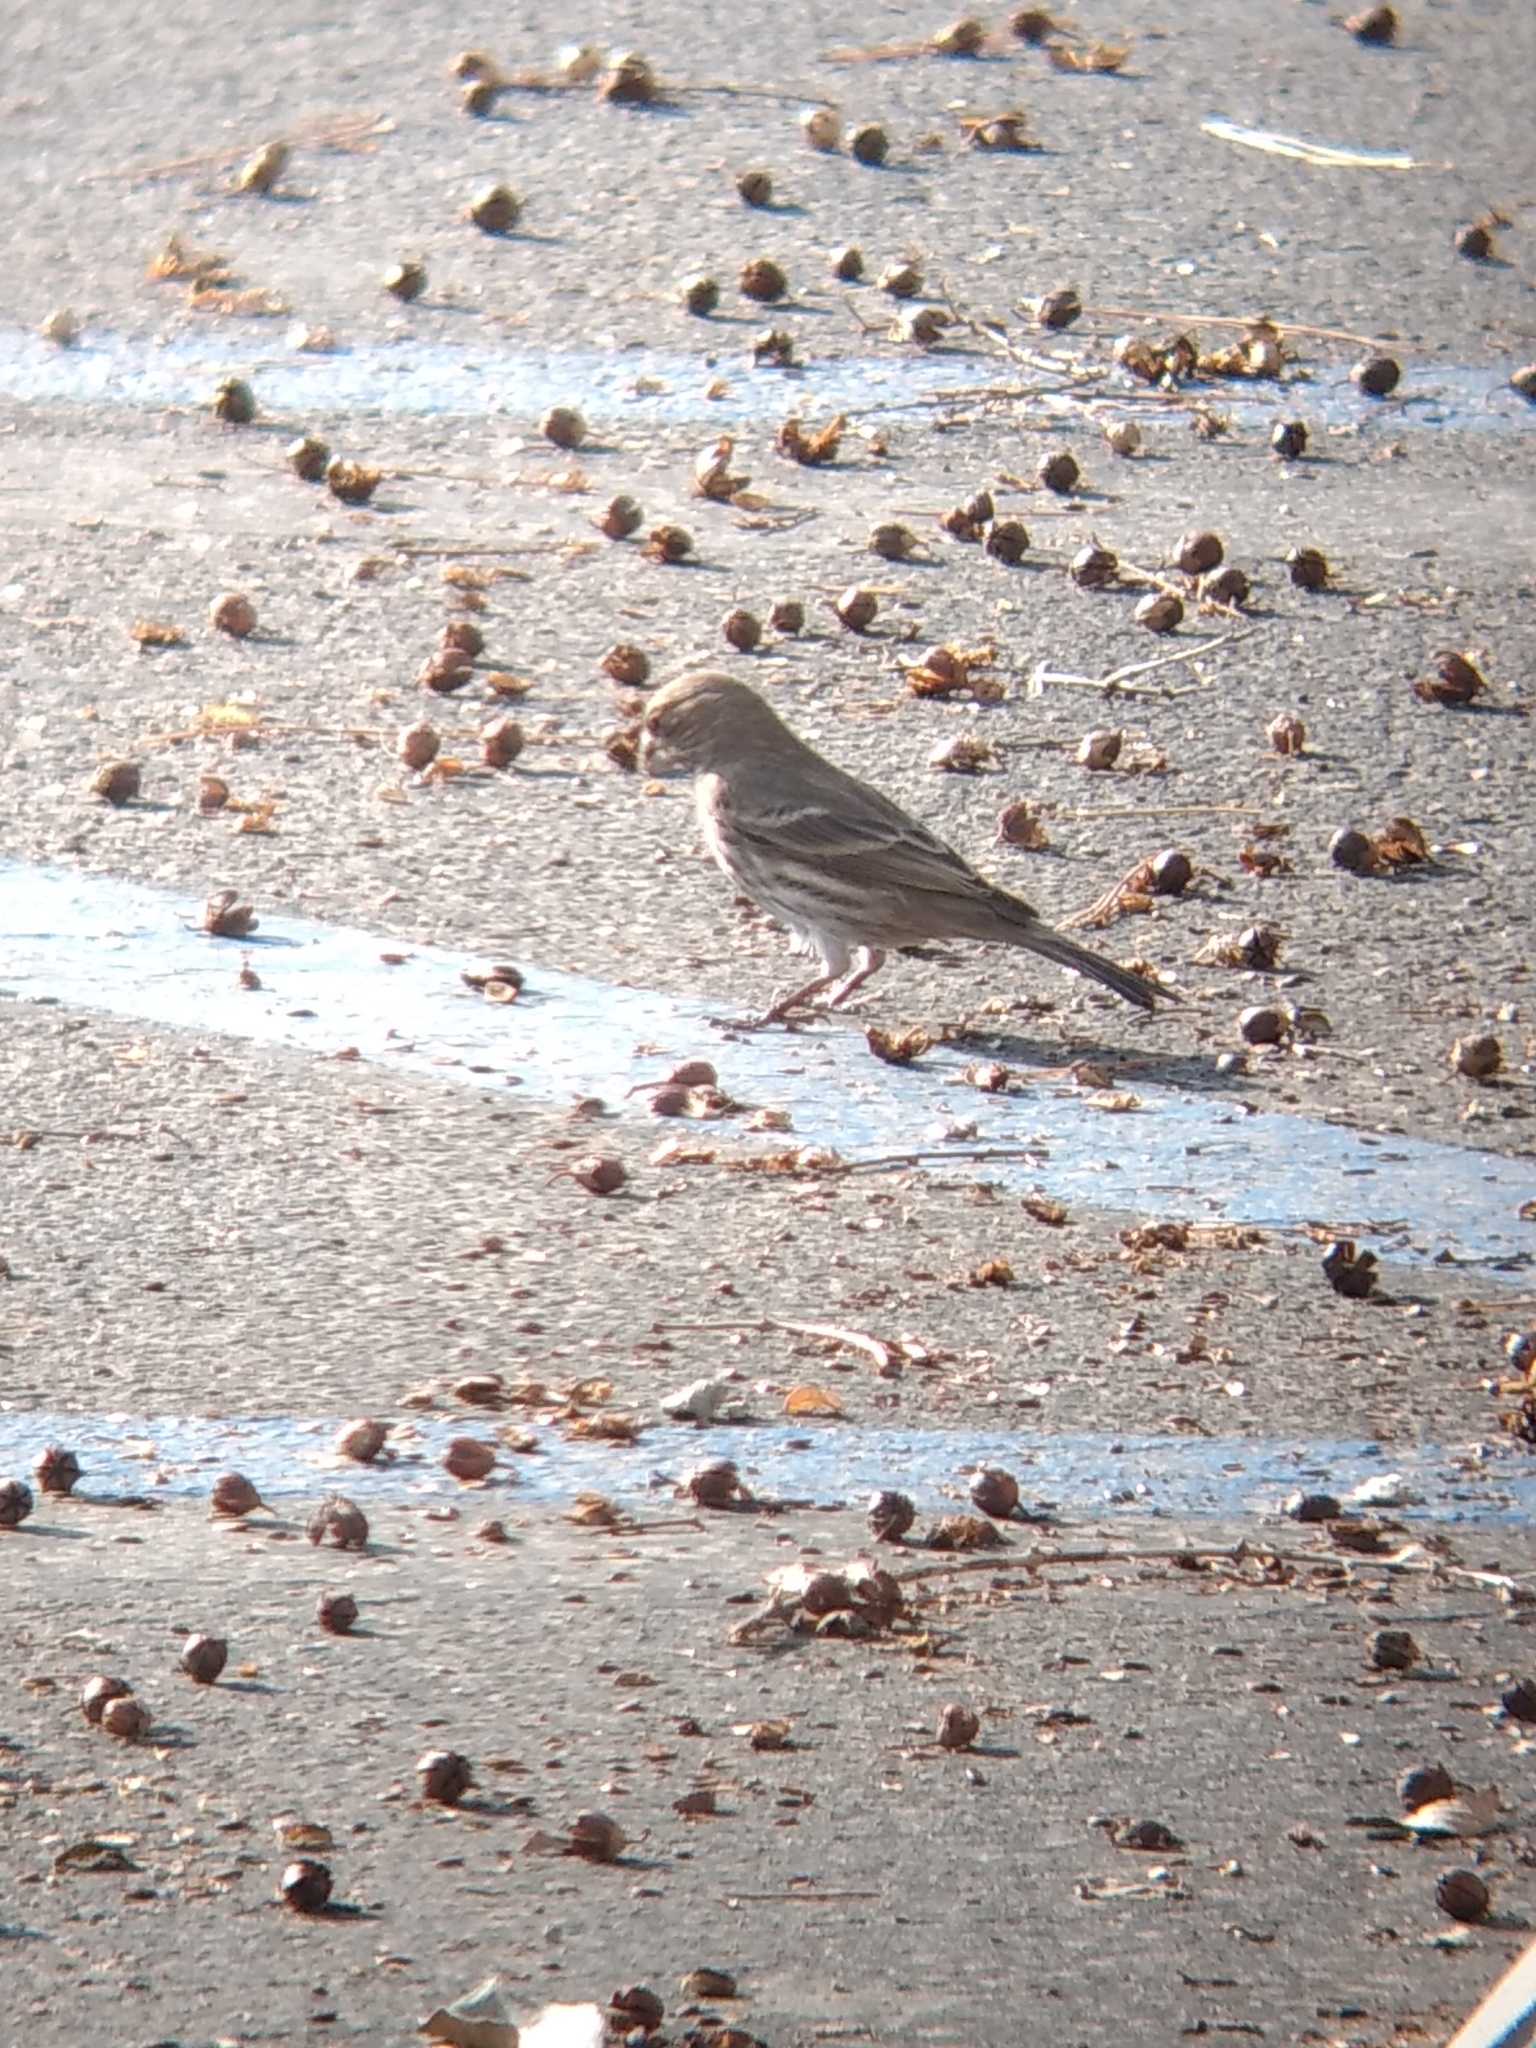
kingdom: Animalia
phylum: Chordata
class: Aves
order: Passeriformes
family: Fringillidae
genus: Haemorhous
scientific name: Haemorhous mexicanus
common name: House finch
